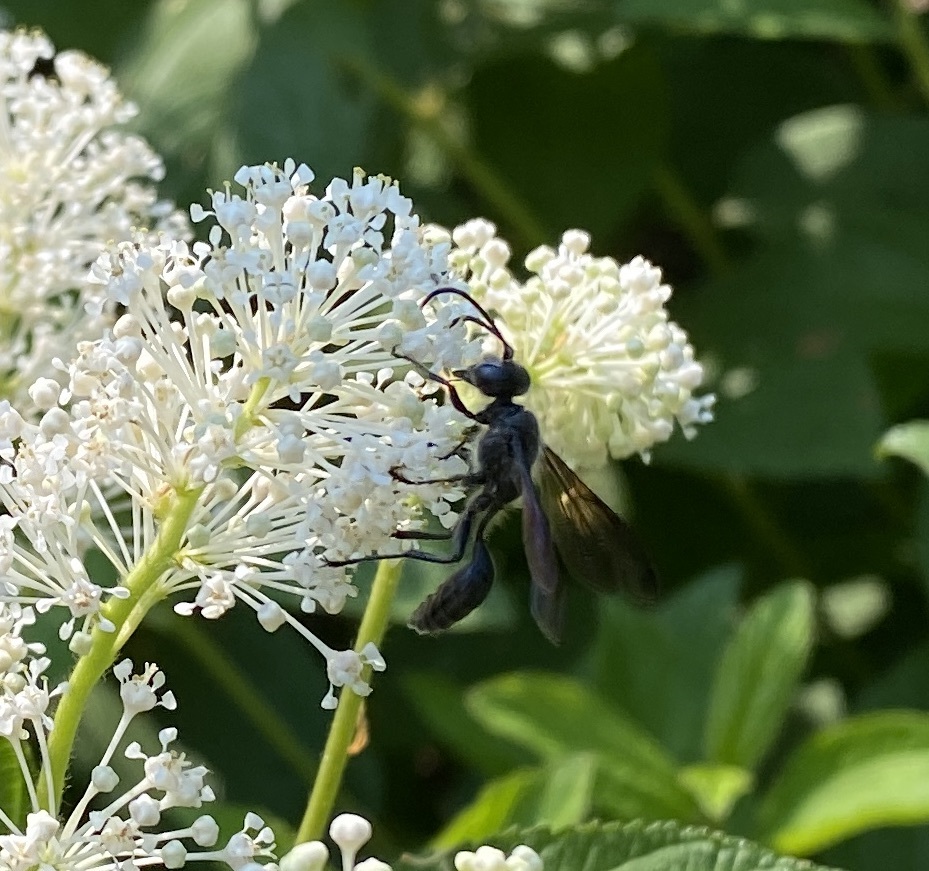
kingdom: Animalia
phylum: Arthropoda
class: Insecta
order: Hymenoptera
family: Sphecidae
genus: Isodontia
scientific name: Isodontia mexicana
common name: Mud dauber
